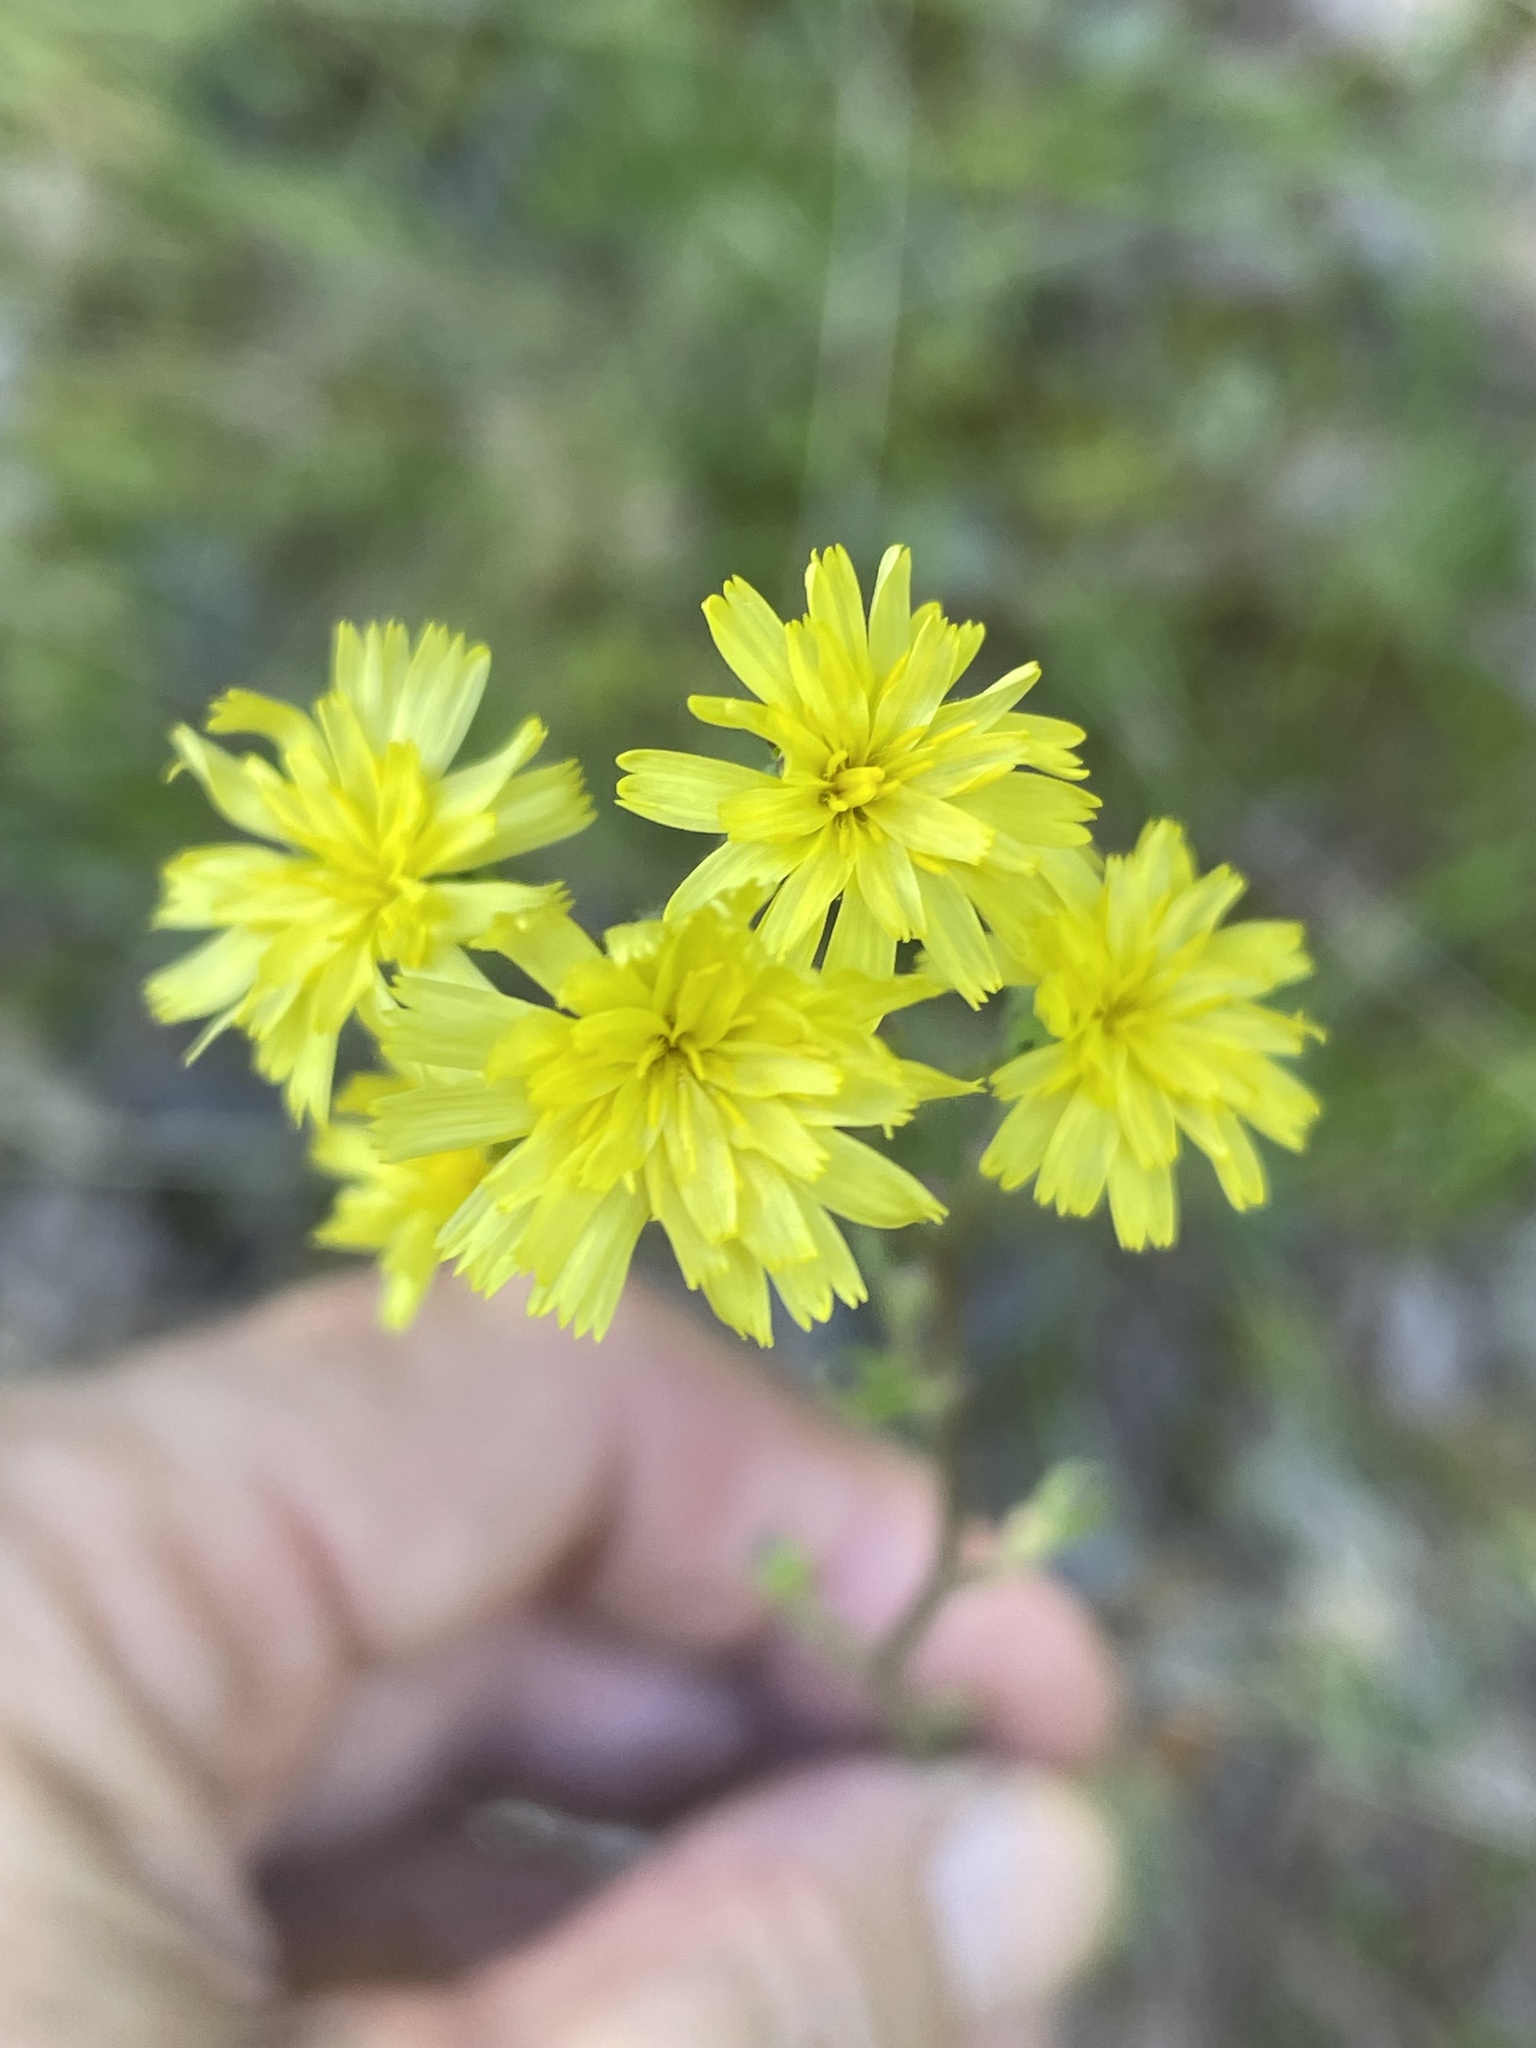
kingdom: Plantae
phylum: Tracheophyta
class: Magnoliopsida
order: Asterales
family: Asteraceae
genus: Hieracium
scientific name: Hieracium gronovii
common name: Beaked hawkweed
